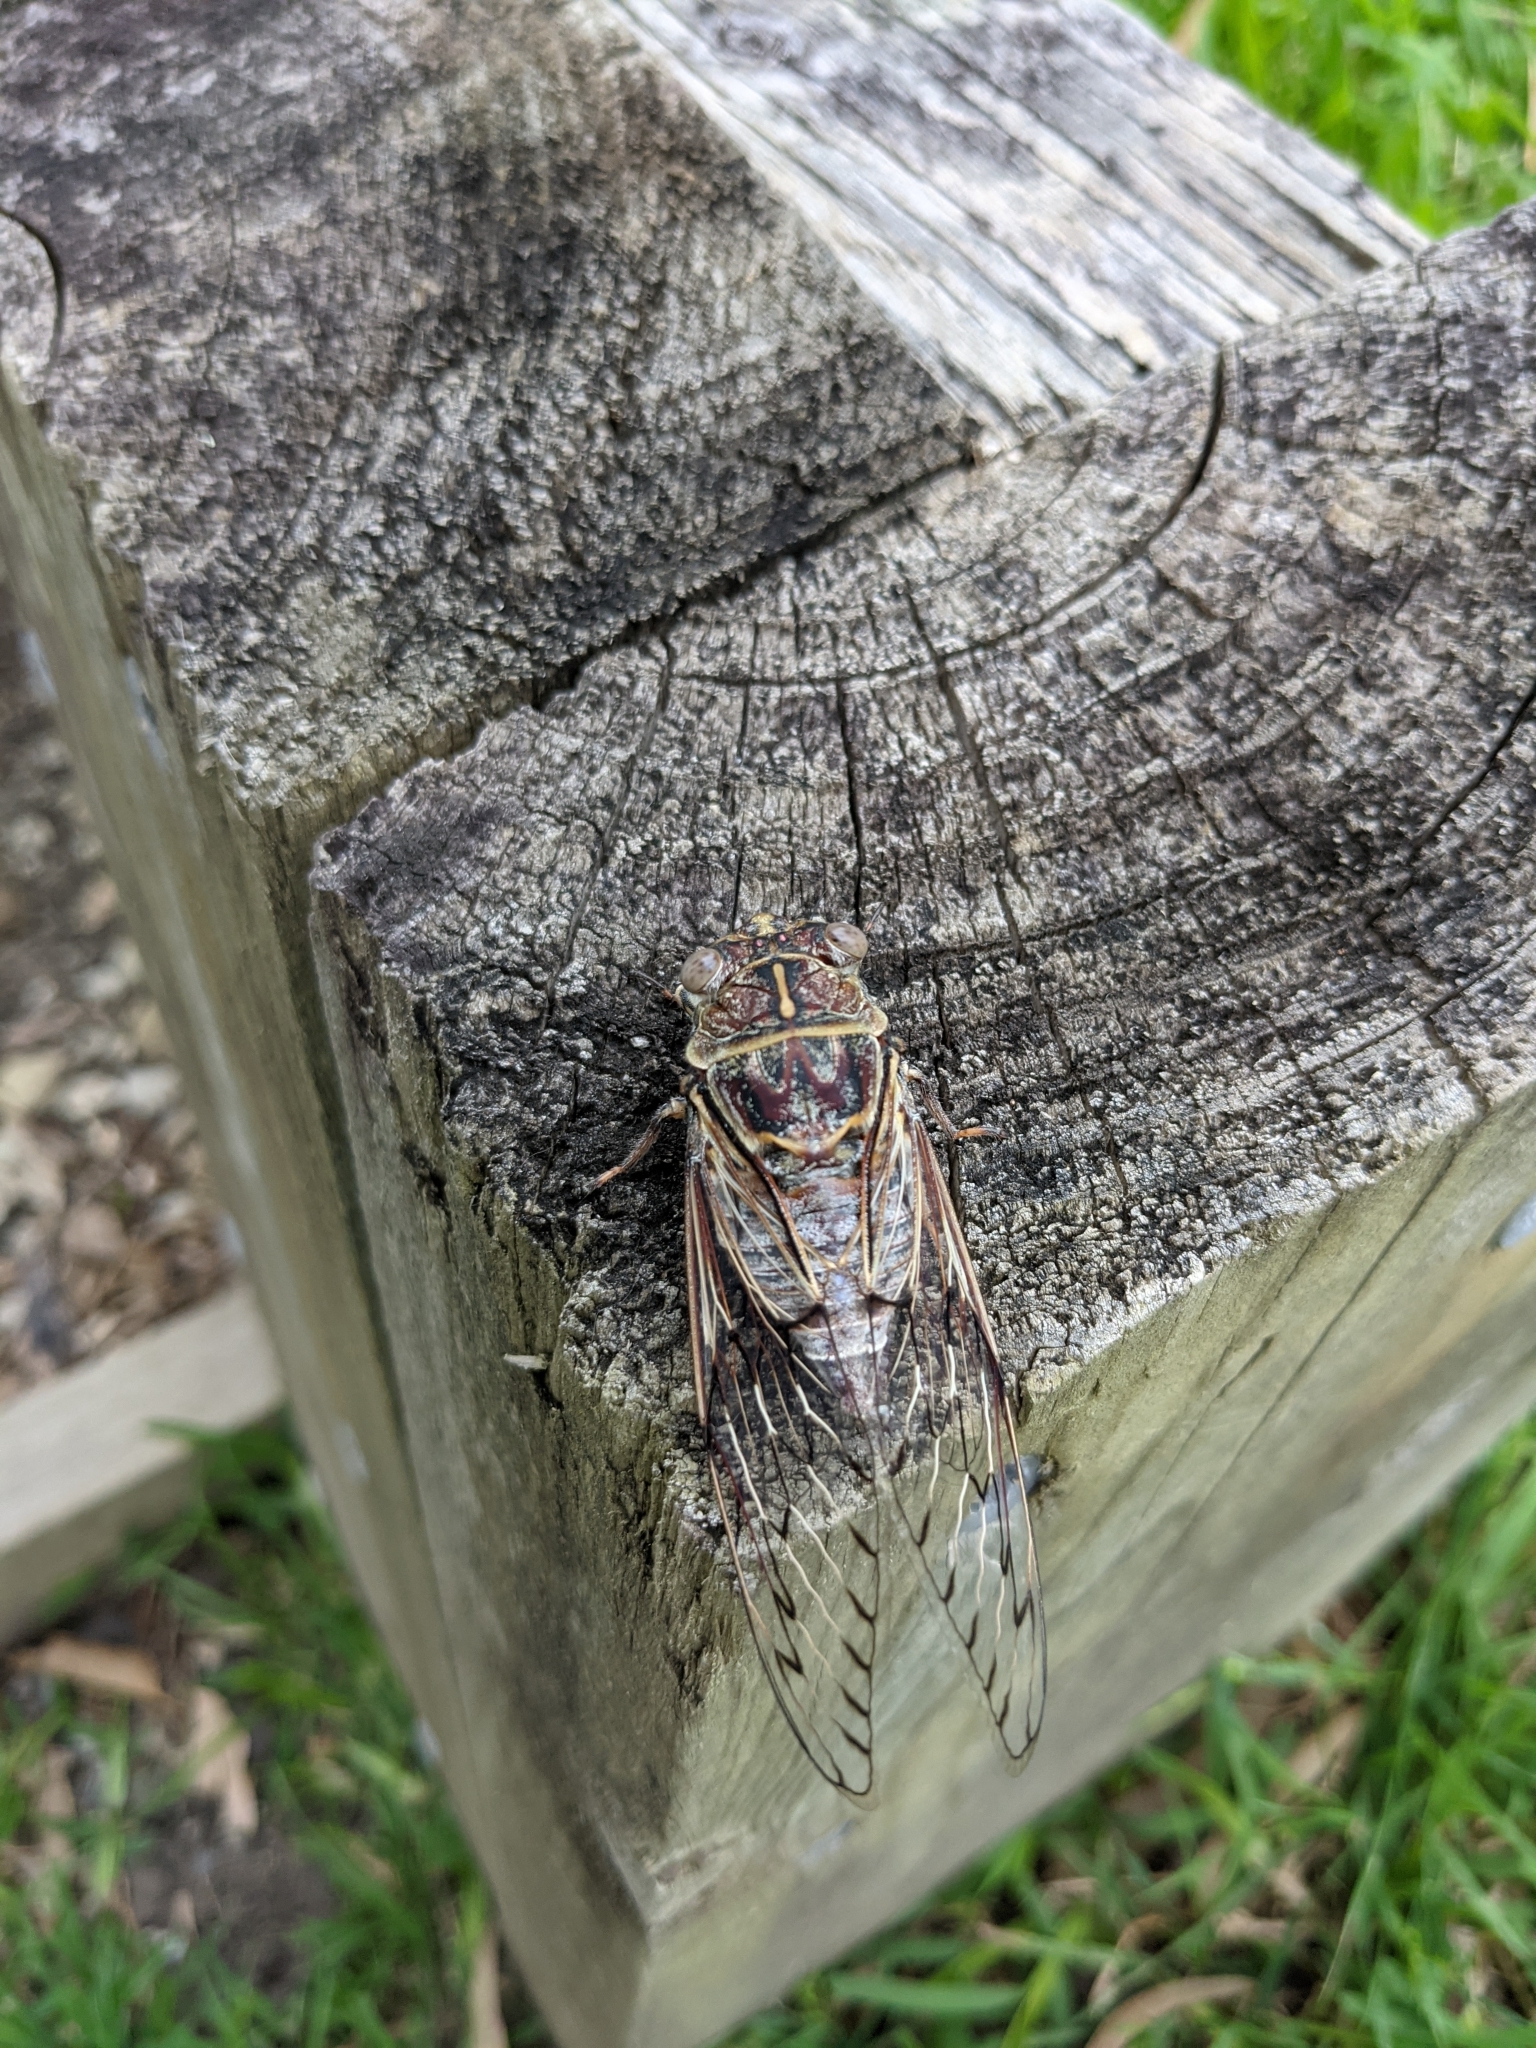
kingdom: Animalia
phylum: Arthropoda
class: Insecta
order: Hemiptera
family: Cicadidae
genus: Henicopsaltria
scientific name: Henicopsaltria eydouxii
